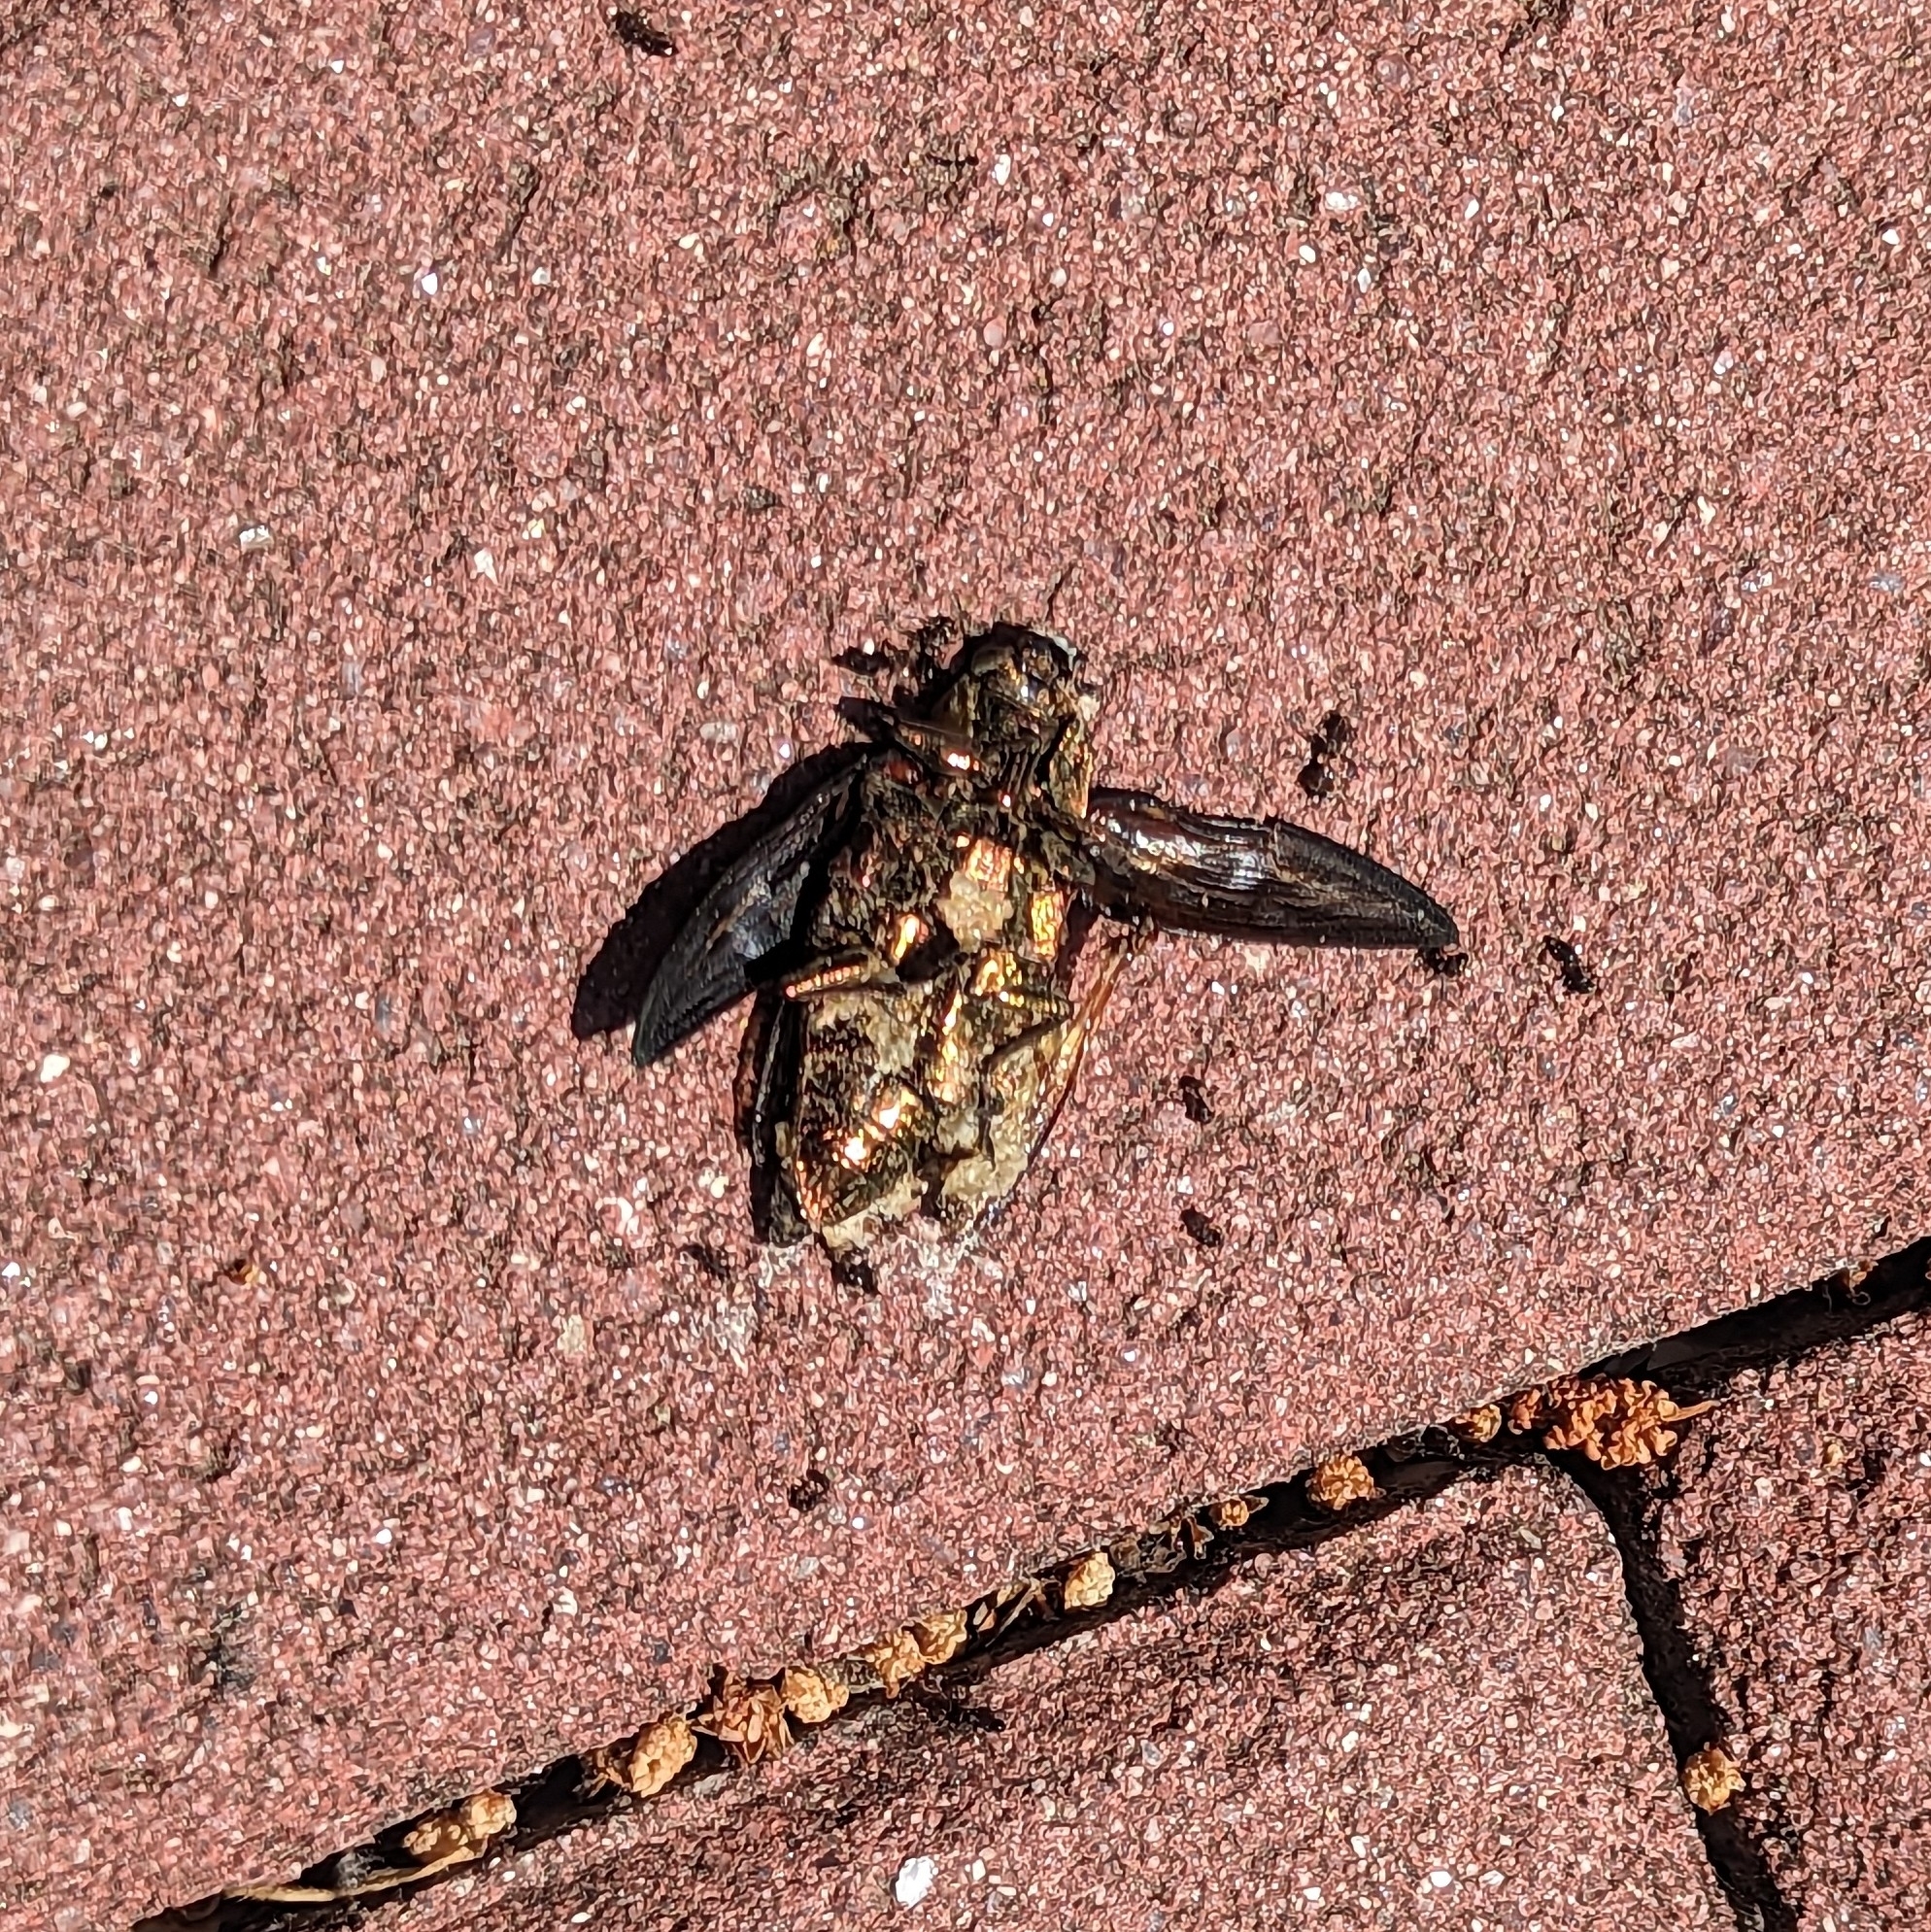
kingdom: Animalia
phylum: Arthropoda
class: Insecta
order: Coleoptera
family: Buprestidae
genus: Chalcophora
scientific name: Chalcophora massiliensis
